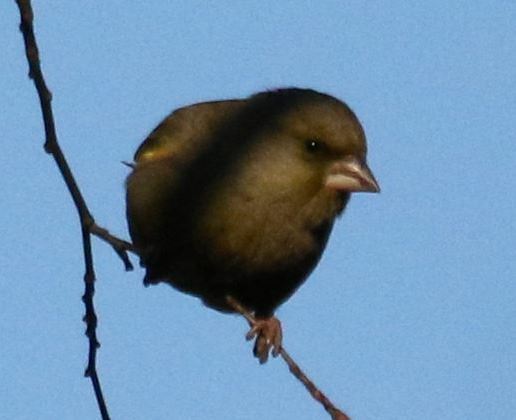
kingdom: Plantae
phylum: Tracheophyta
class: Liliopsida
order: Poales
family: Poaceae
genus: Chloris
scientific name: Chloris chloris
